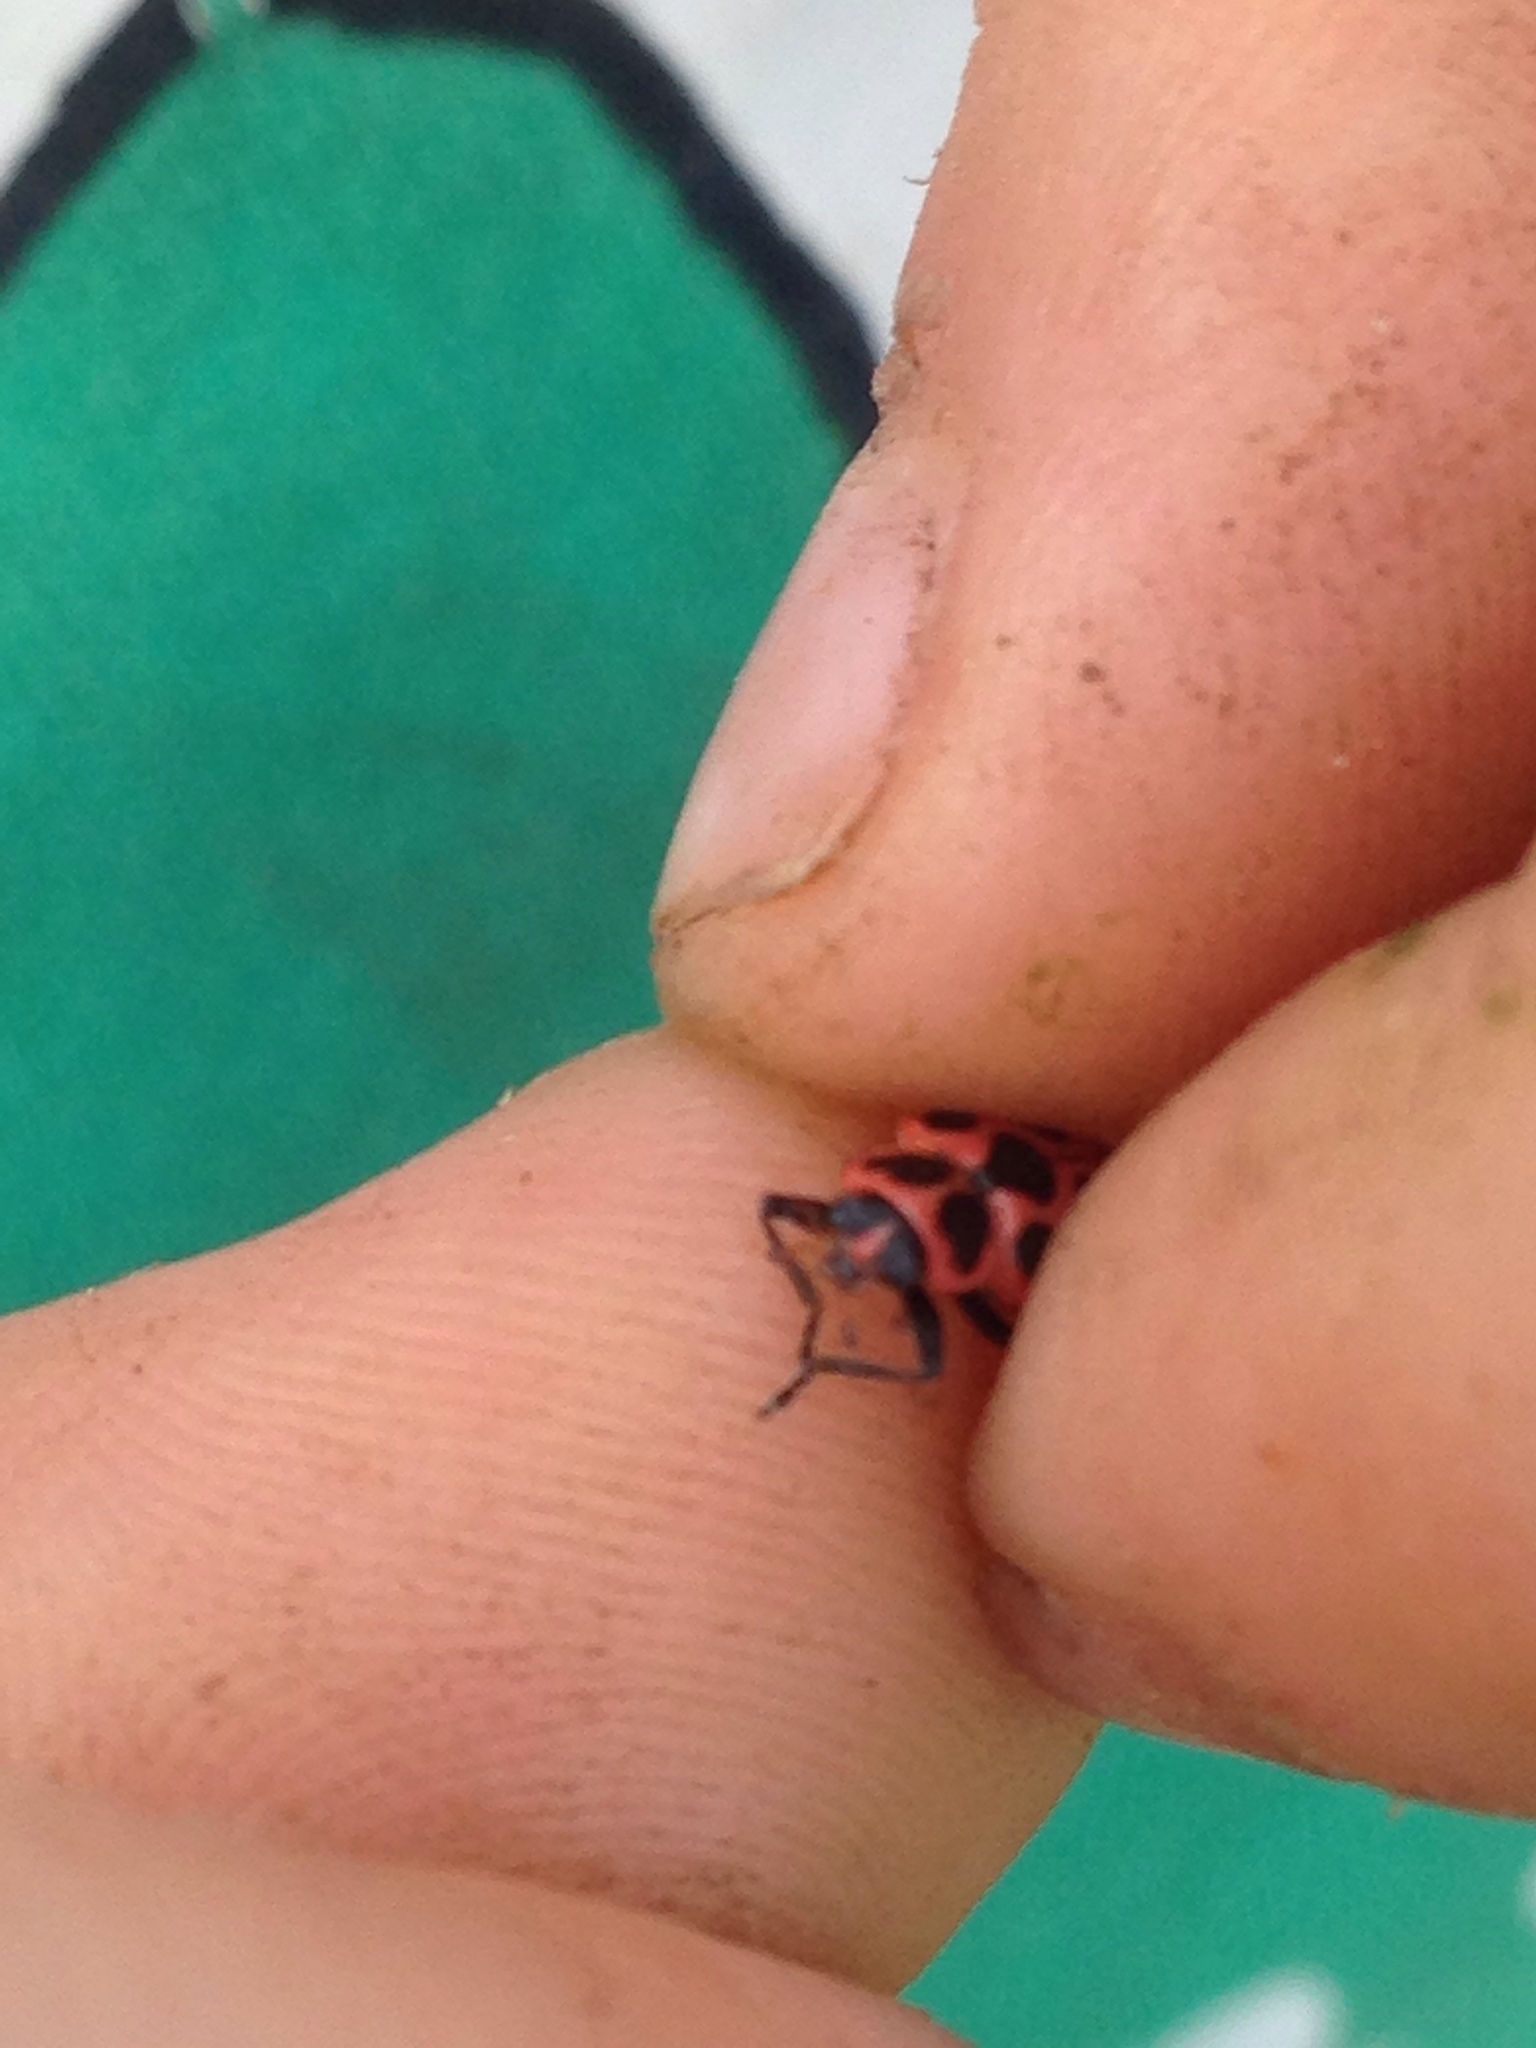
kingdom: Animalia
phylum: Arthropoda
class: Insecta
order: Coleoptera
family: Coccinellidae
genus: Coleomegilla
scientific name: Coleomegilla maculata
